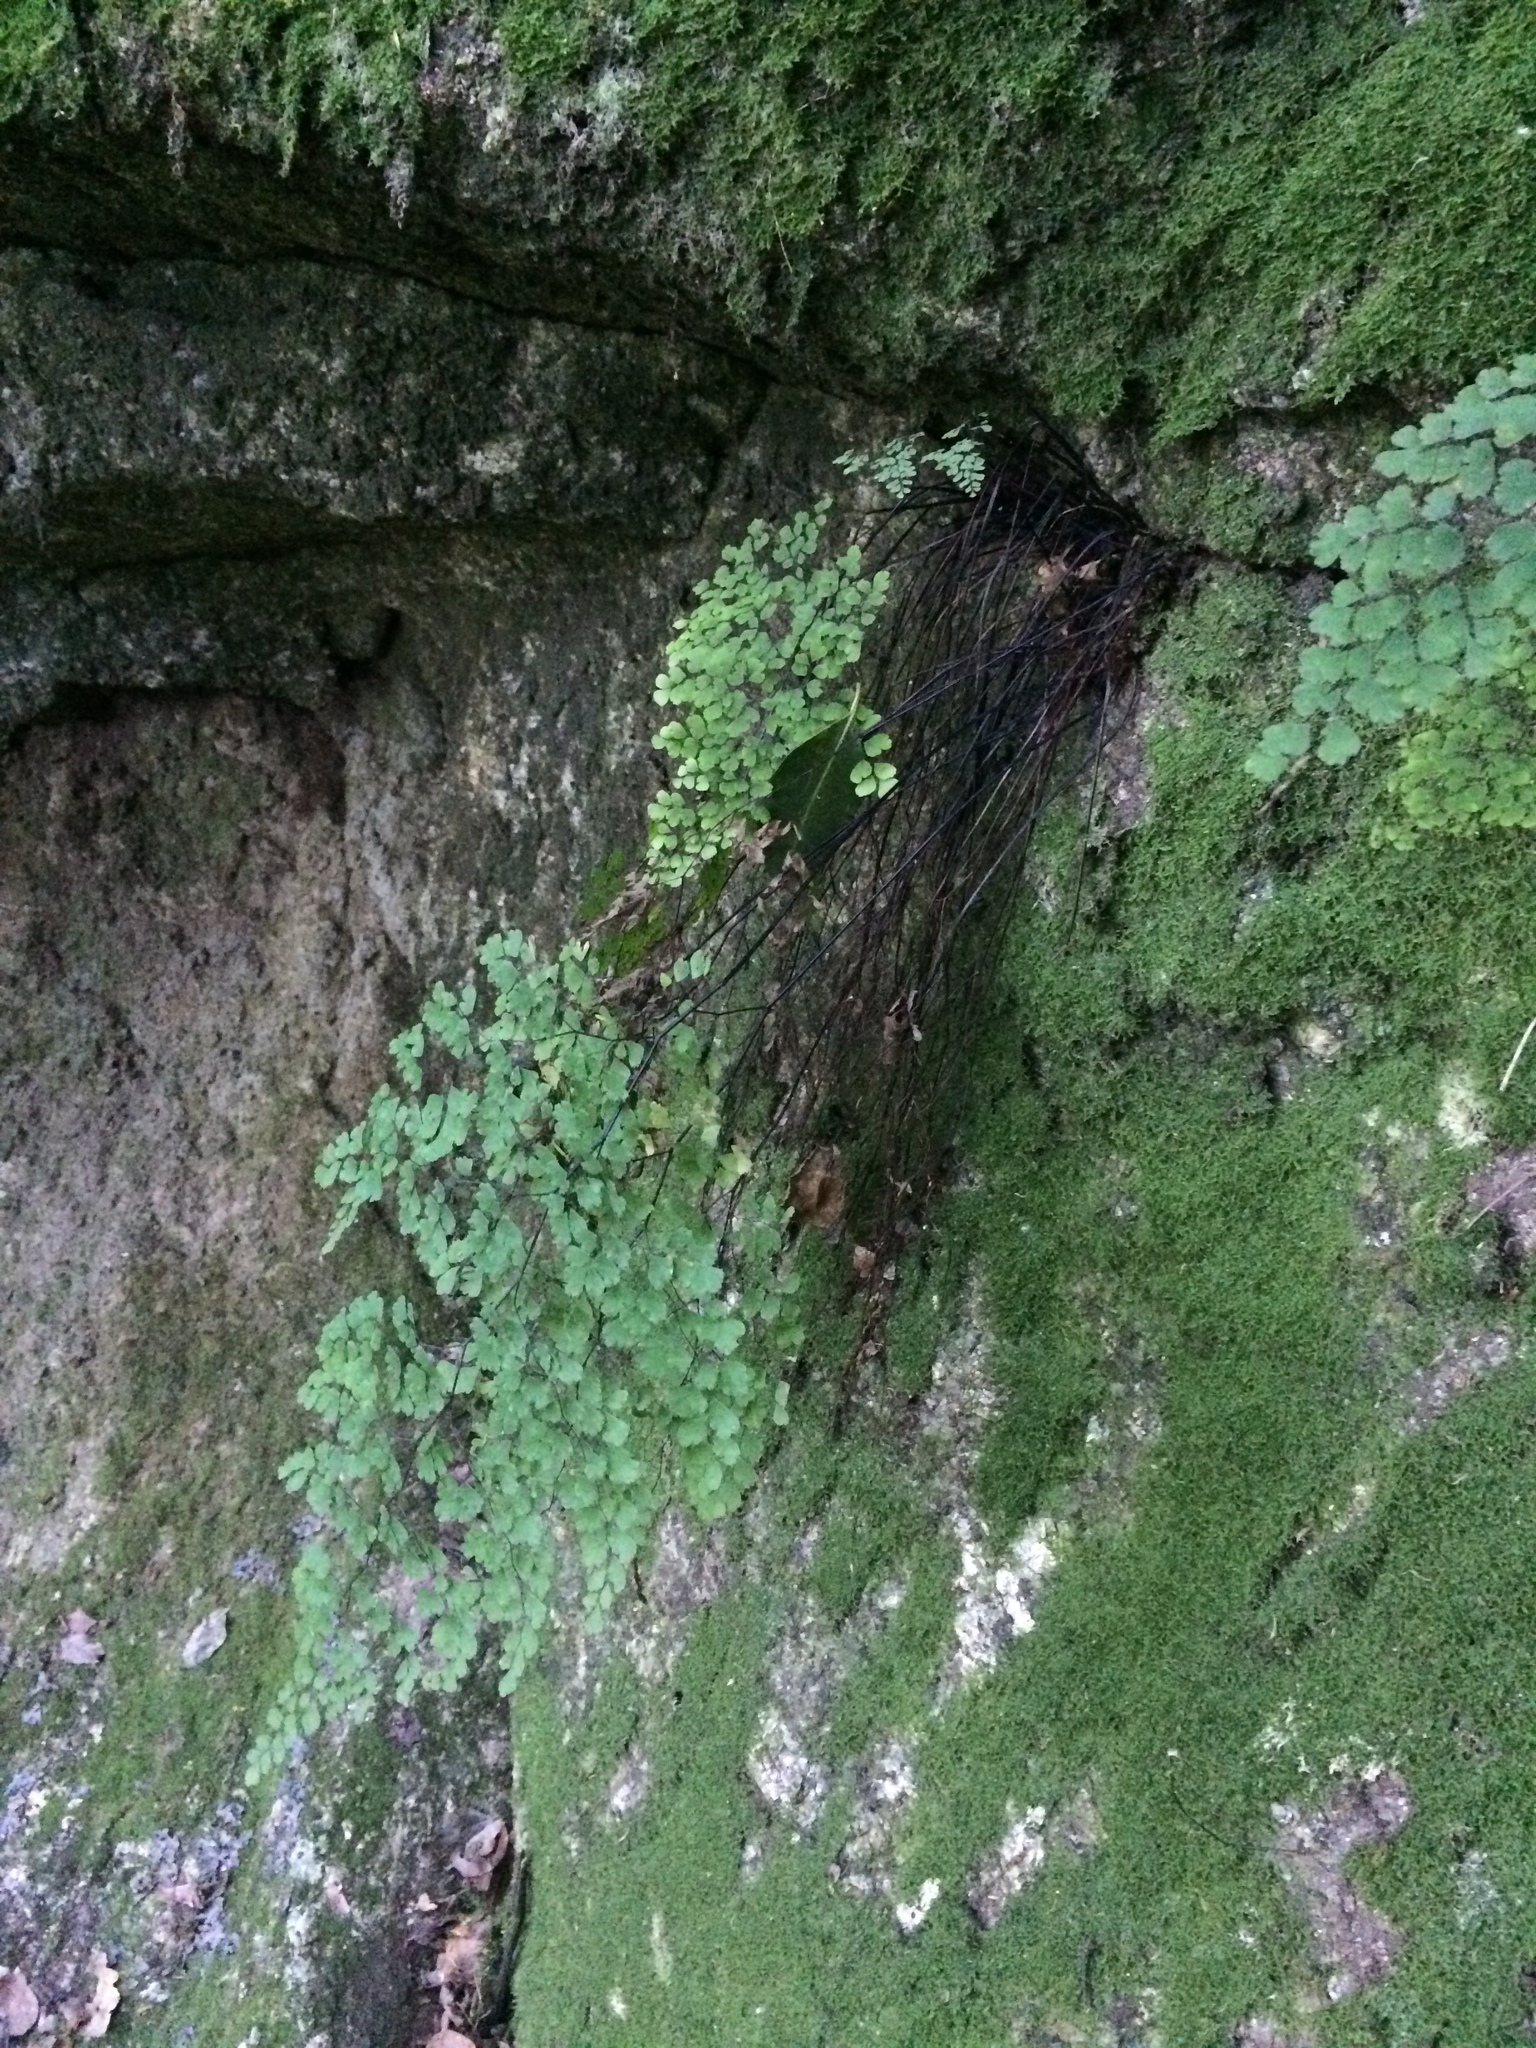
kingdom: Plantae
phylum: Tracheophyta
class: Polypodiopsida
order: Polypodiales
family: Pteridaceae
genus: Adiantum
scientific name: Adiantum raddianum
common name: Delta maidenhair fern
